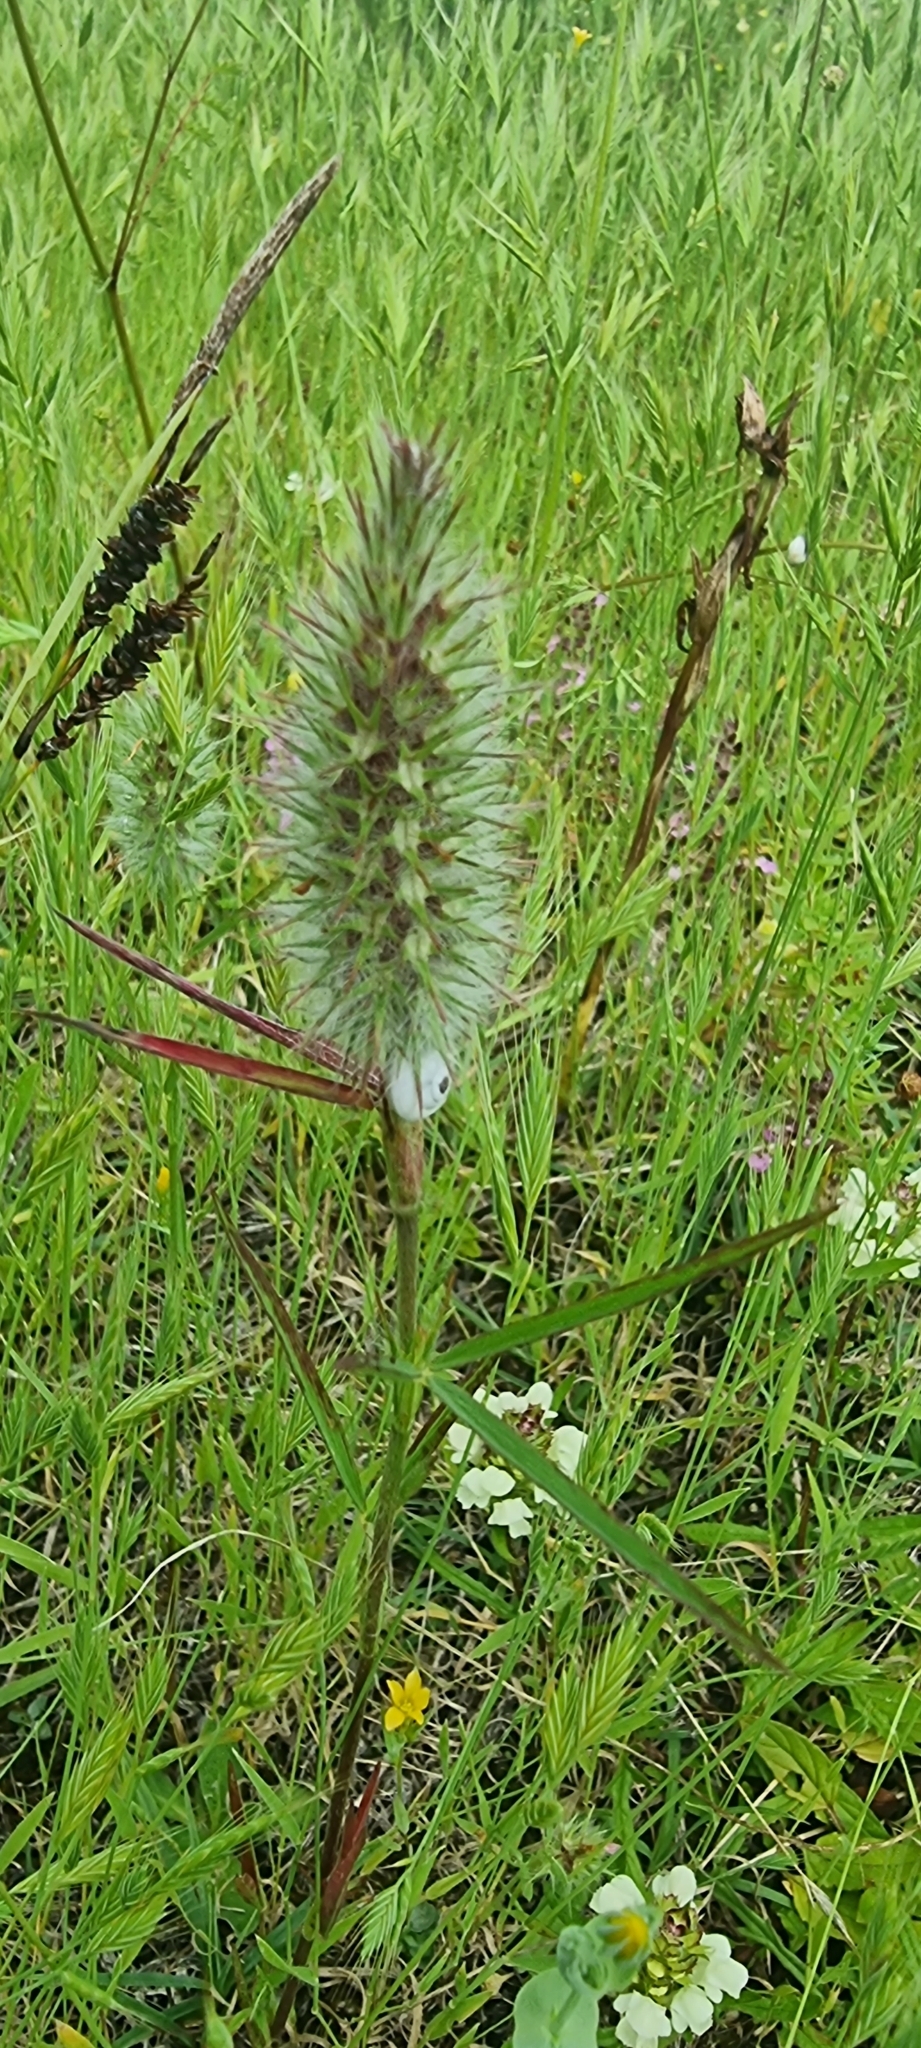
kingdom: Plantae
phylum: Tracheophyta
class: Magnoliopsida
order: Fabales
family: Fabaceae
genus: Trifolium
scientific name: Trifolium angustifolium
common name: Narrow clover
